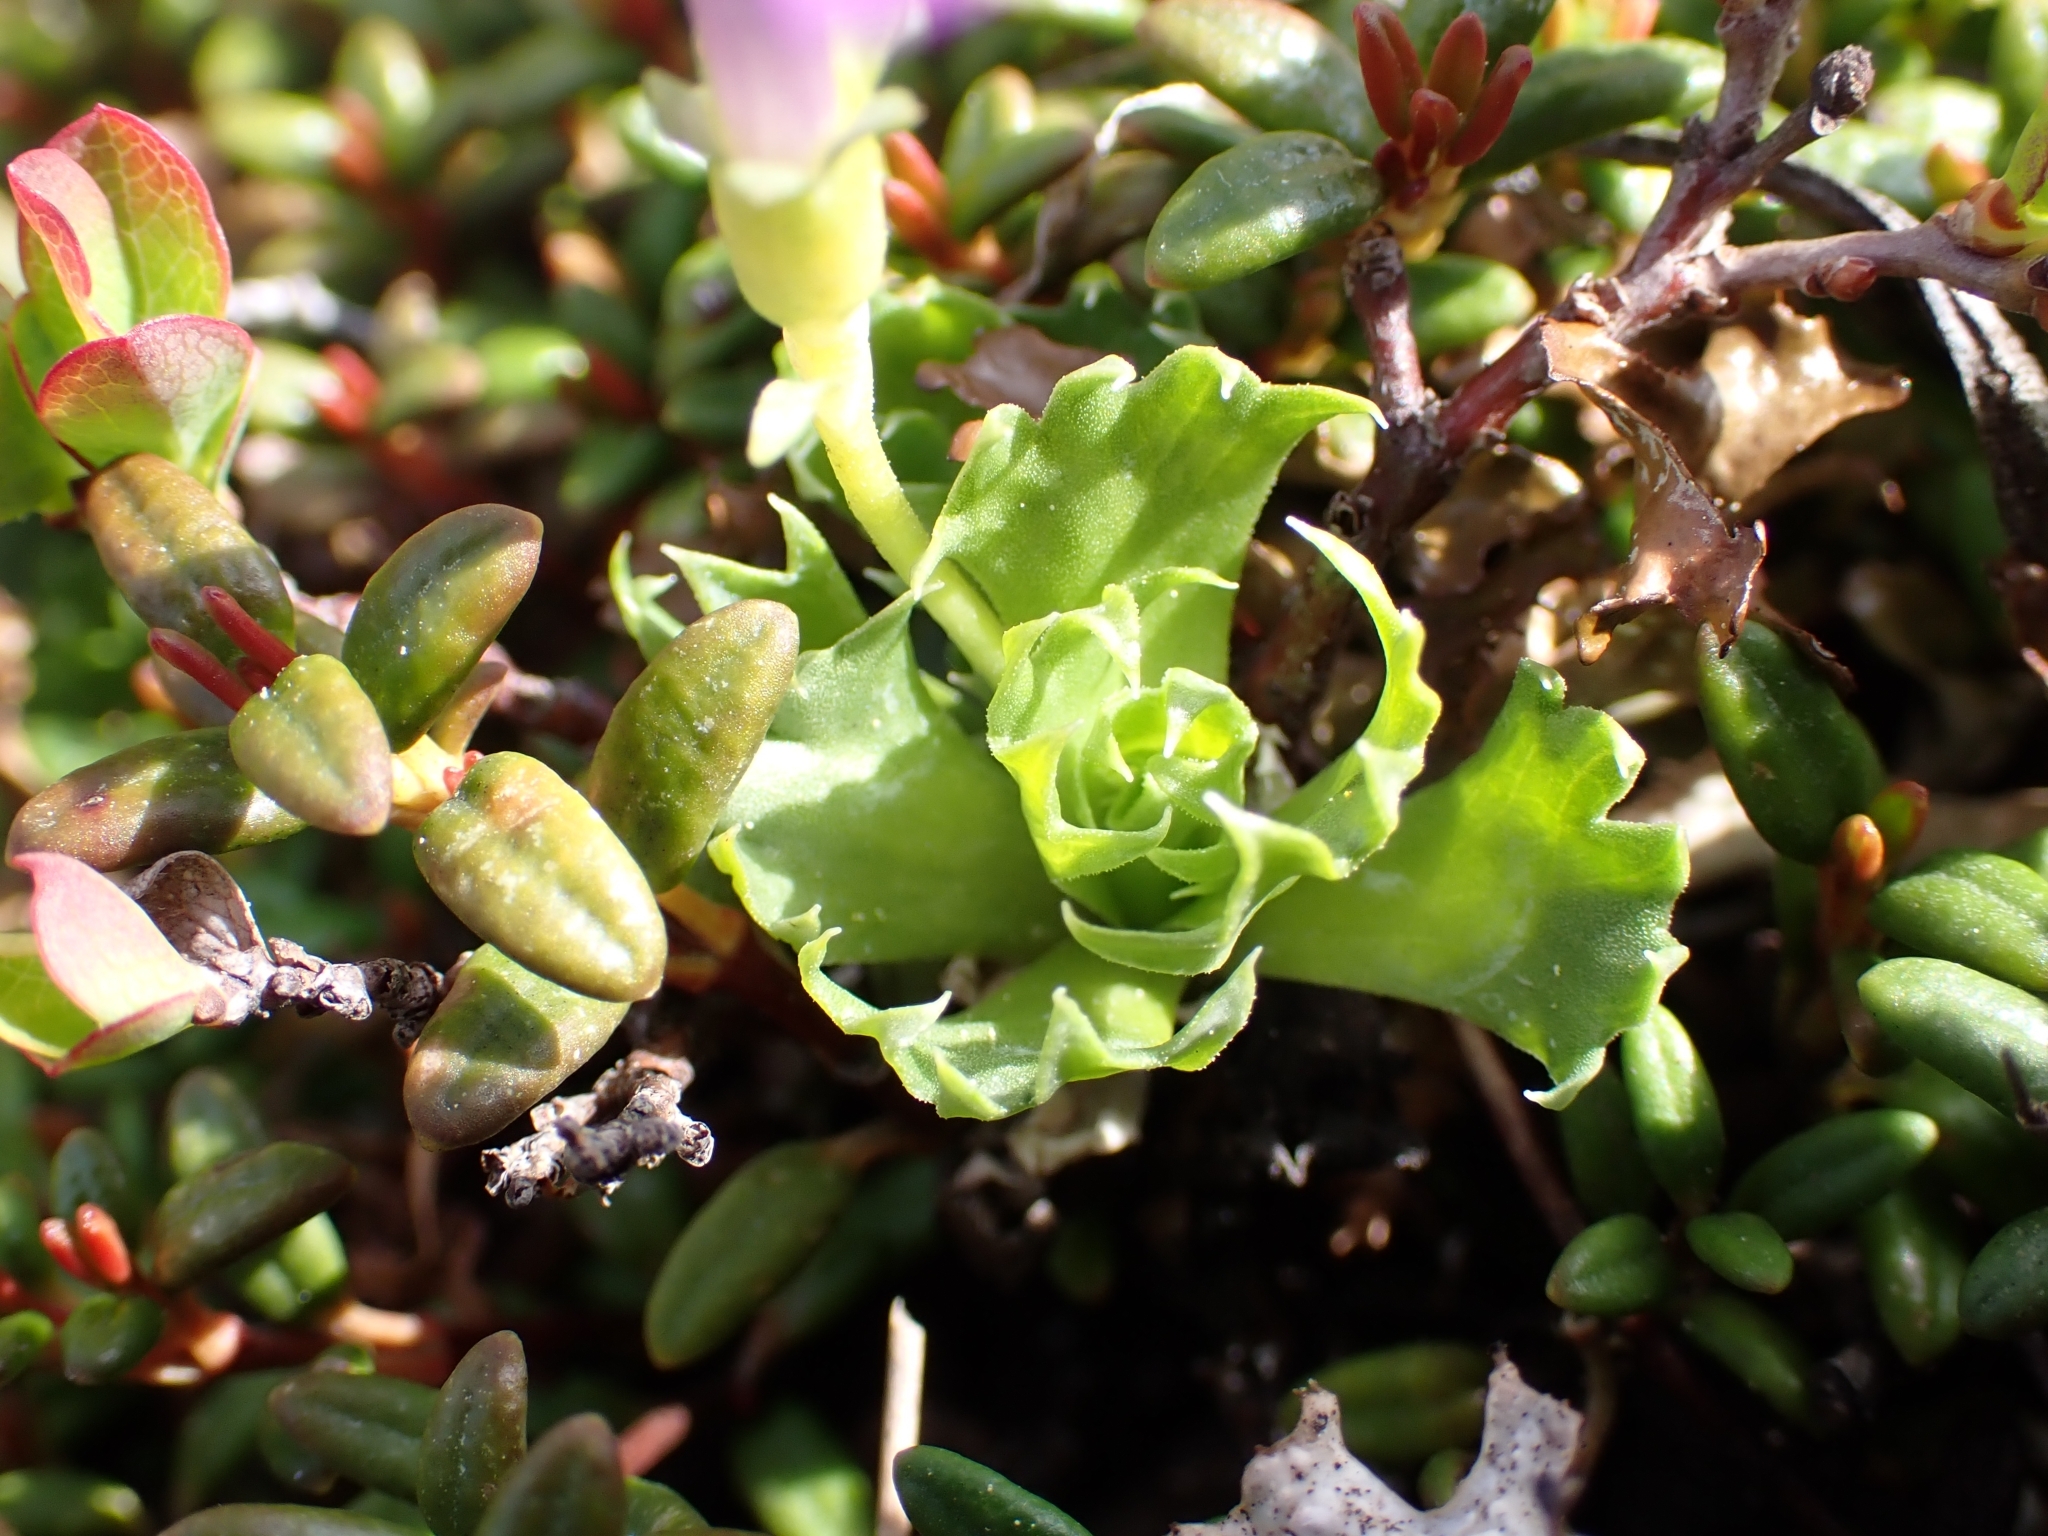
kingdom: Plantae
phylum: Tracheophyta
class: Magnoliopsida
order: Ericales
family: Primulaceae
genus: Primula
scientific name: Primula minima
